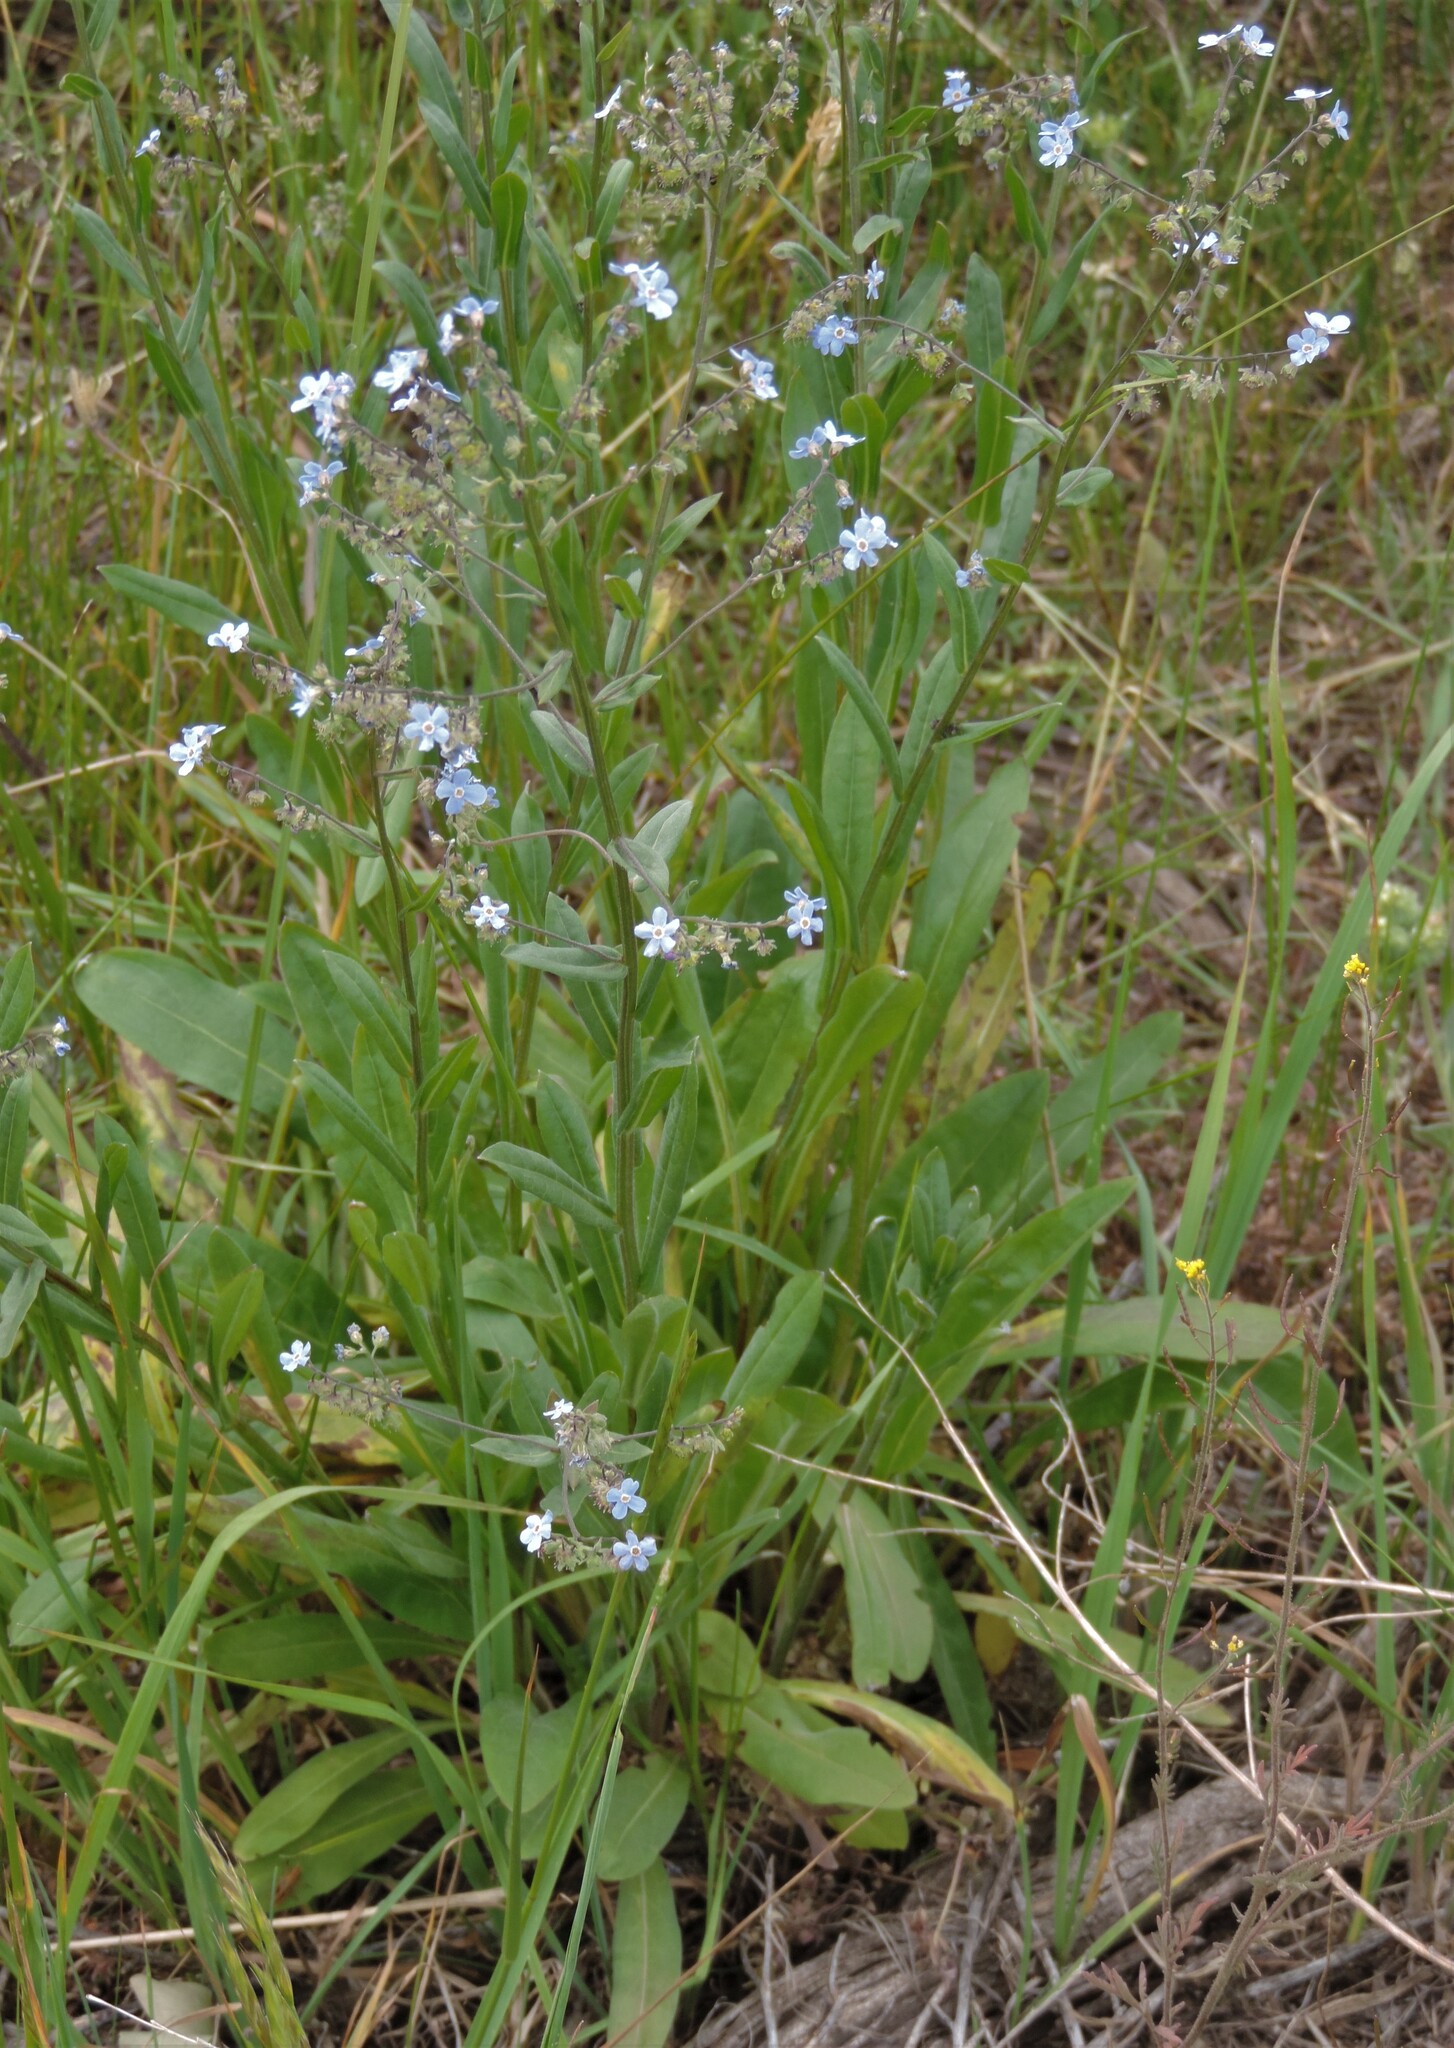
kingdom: Plantae
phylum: Tracheophyta
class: Magnoliopsida
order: Boraginales
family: Boraginaceae
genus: Hackelia
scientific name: Hackelia micrantha
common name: Meadow stickseed
